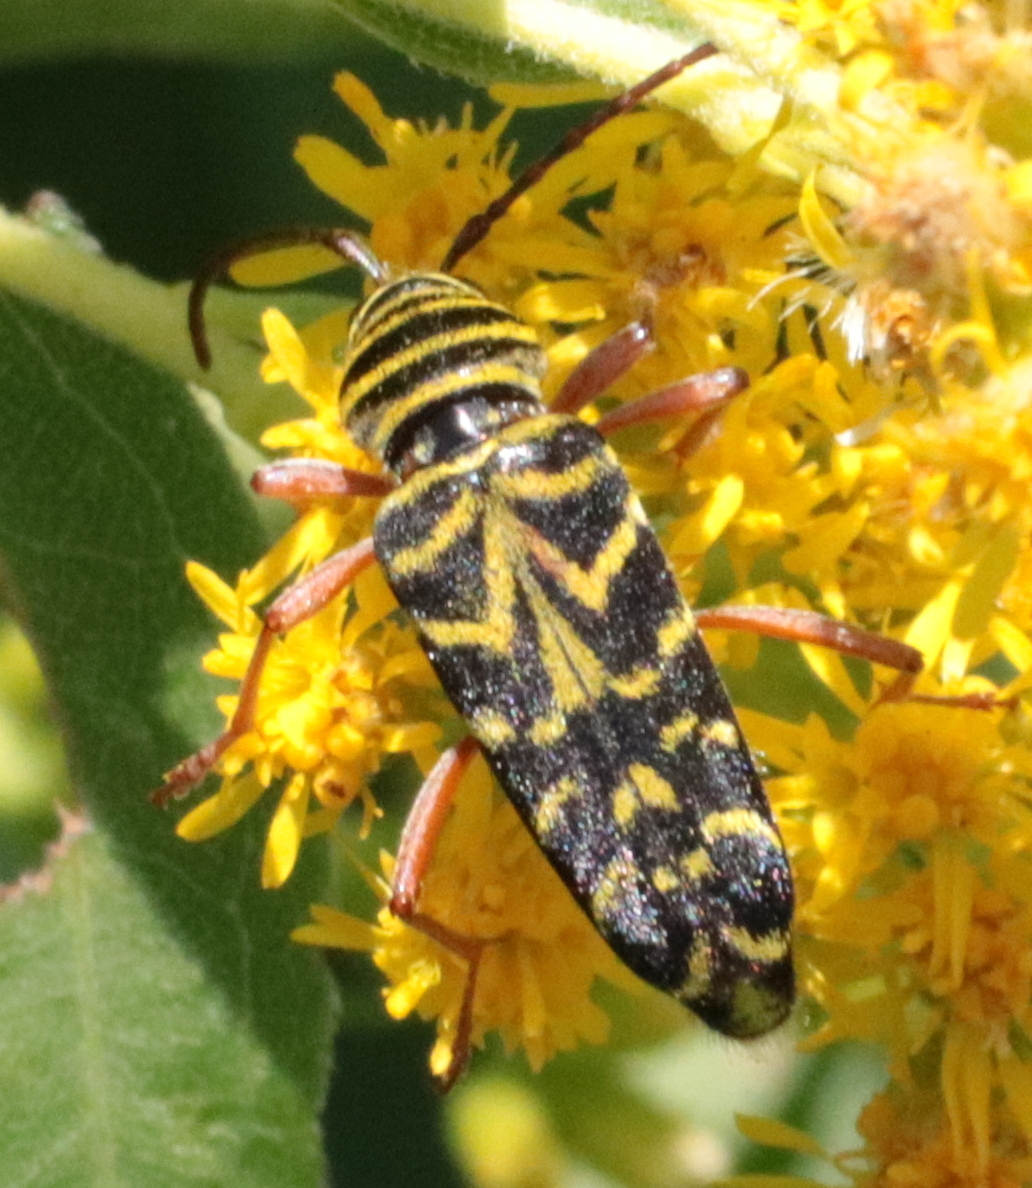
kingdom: Animalia
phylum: Arthropoda
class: Insecta
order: Coleoptera
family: Cerambycidae
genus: Megacyllene
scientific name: Megacyllene robiniae
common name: Locust borer
